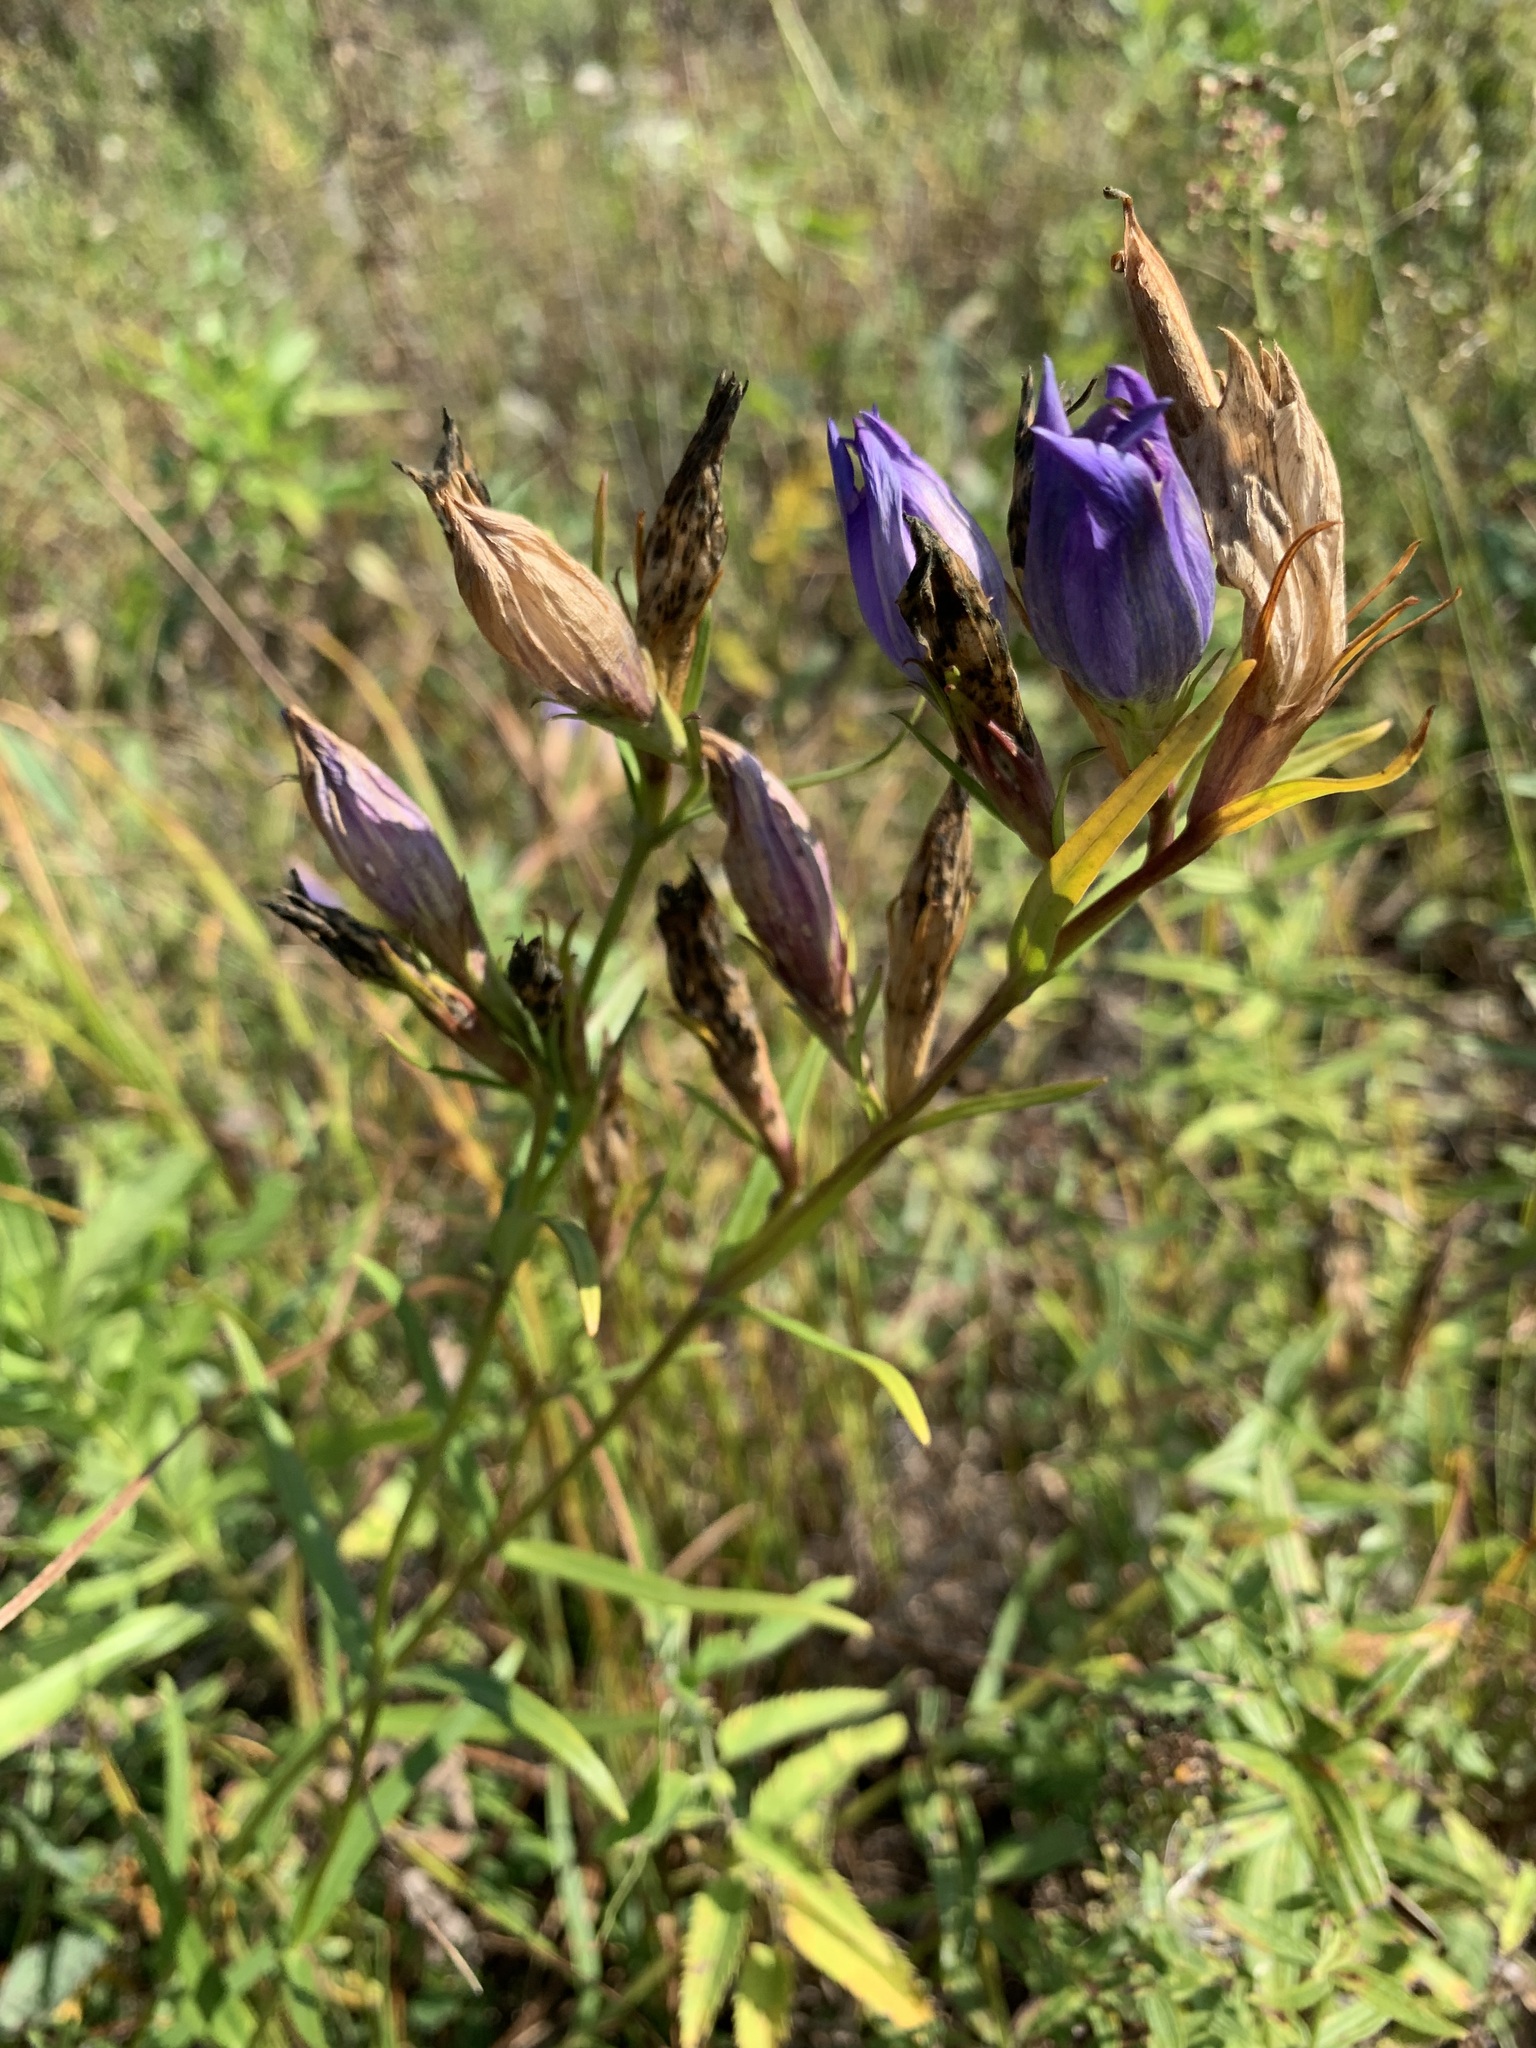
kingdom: Plantae
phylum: Tracheophyta
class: Magnoliopsida
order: Gentianales
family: Gentianaceae
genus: Gentiana
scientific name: Gentiana pneumonanthe
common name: Marsh gentian
